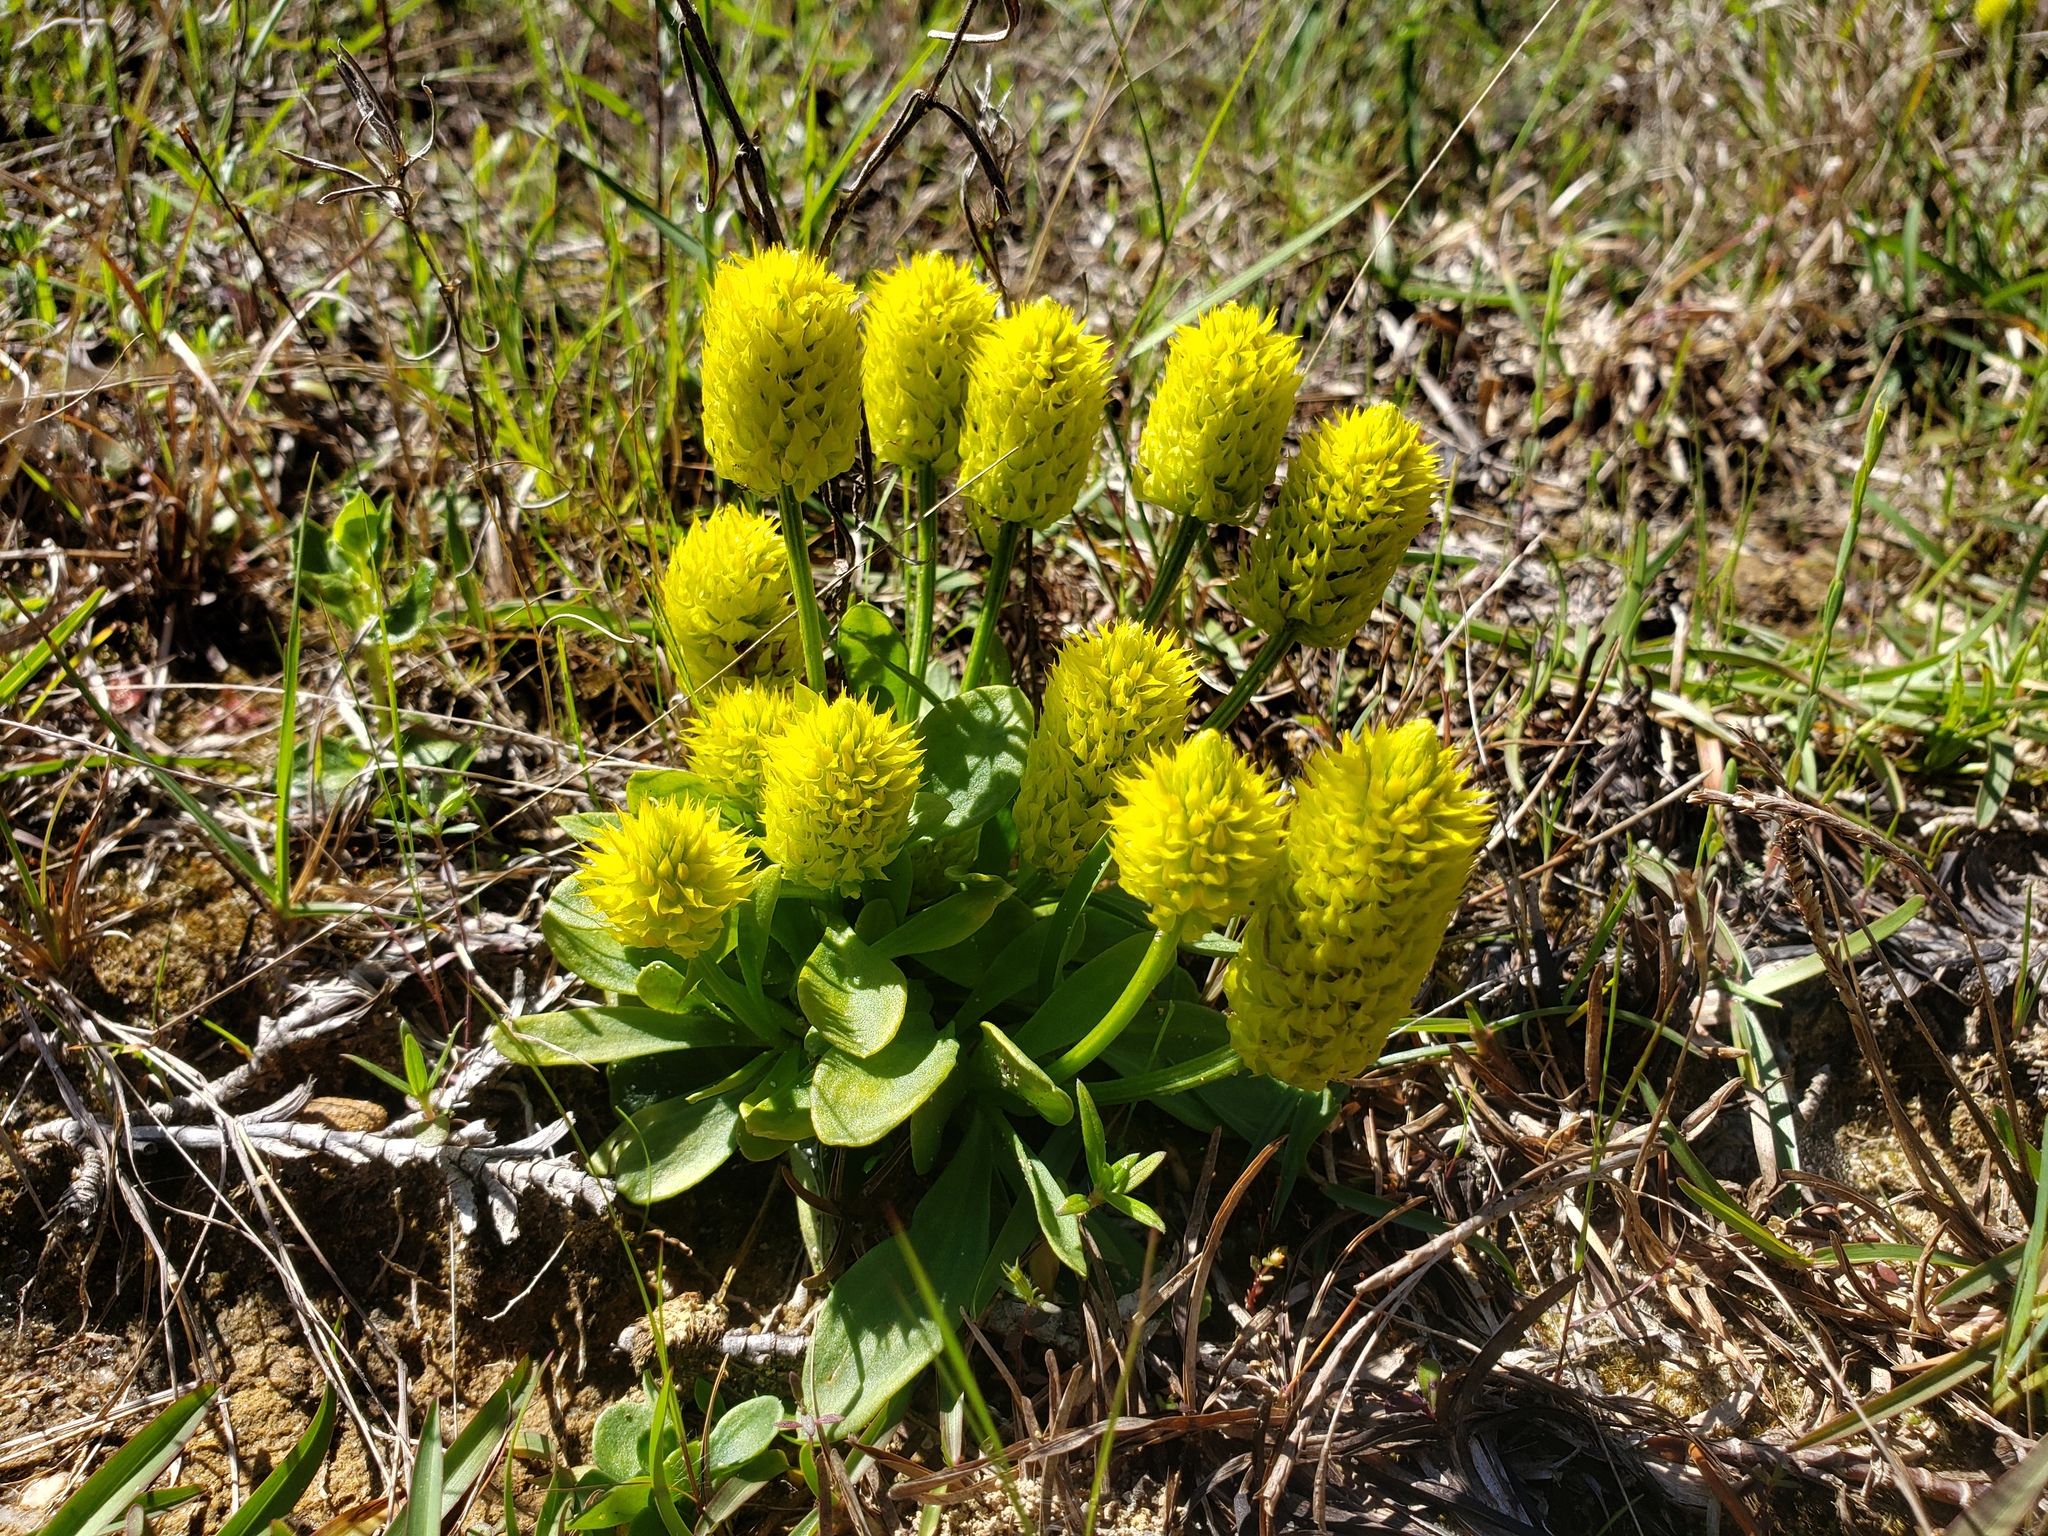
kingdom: Plantae
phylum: Tracheophyta
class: Magnoliopsida
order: Fabales
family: Polygalaceae
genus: Polygala
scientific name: Polygala nana
